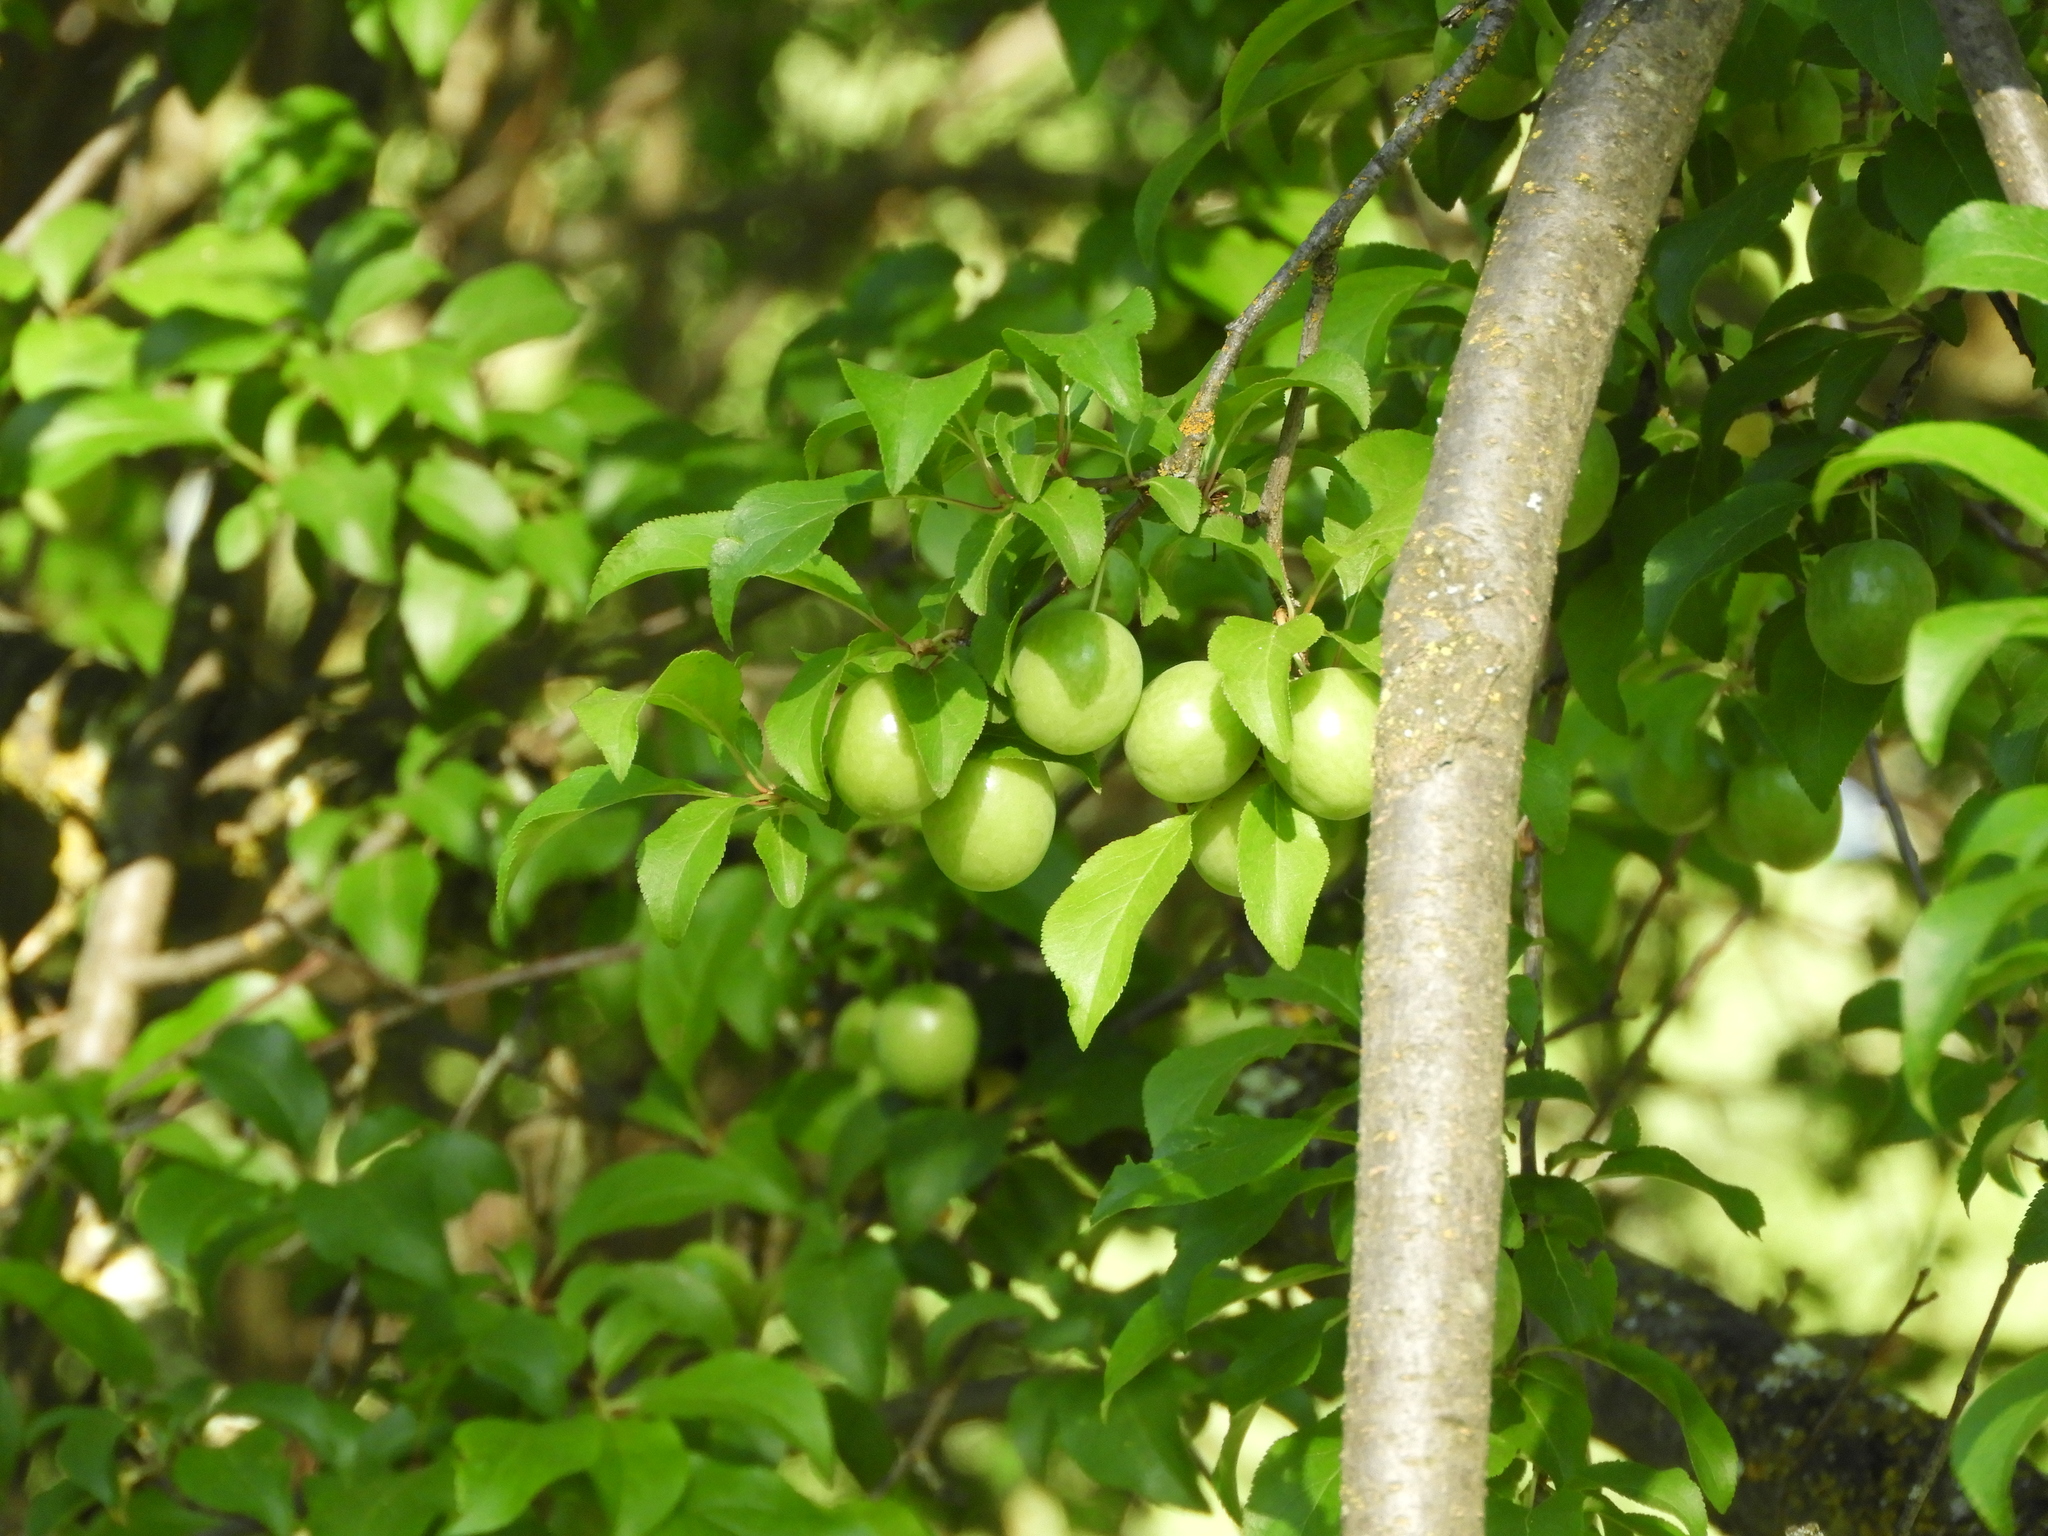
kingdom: Plantae
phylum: Tracheophyta
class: Magnoliopsida
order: Rosales
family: Rosaceae
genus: Prunus
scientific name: Prunus cerasifera
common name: Cherry plum
